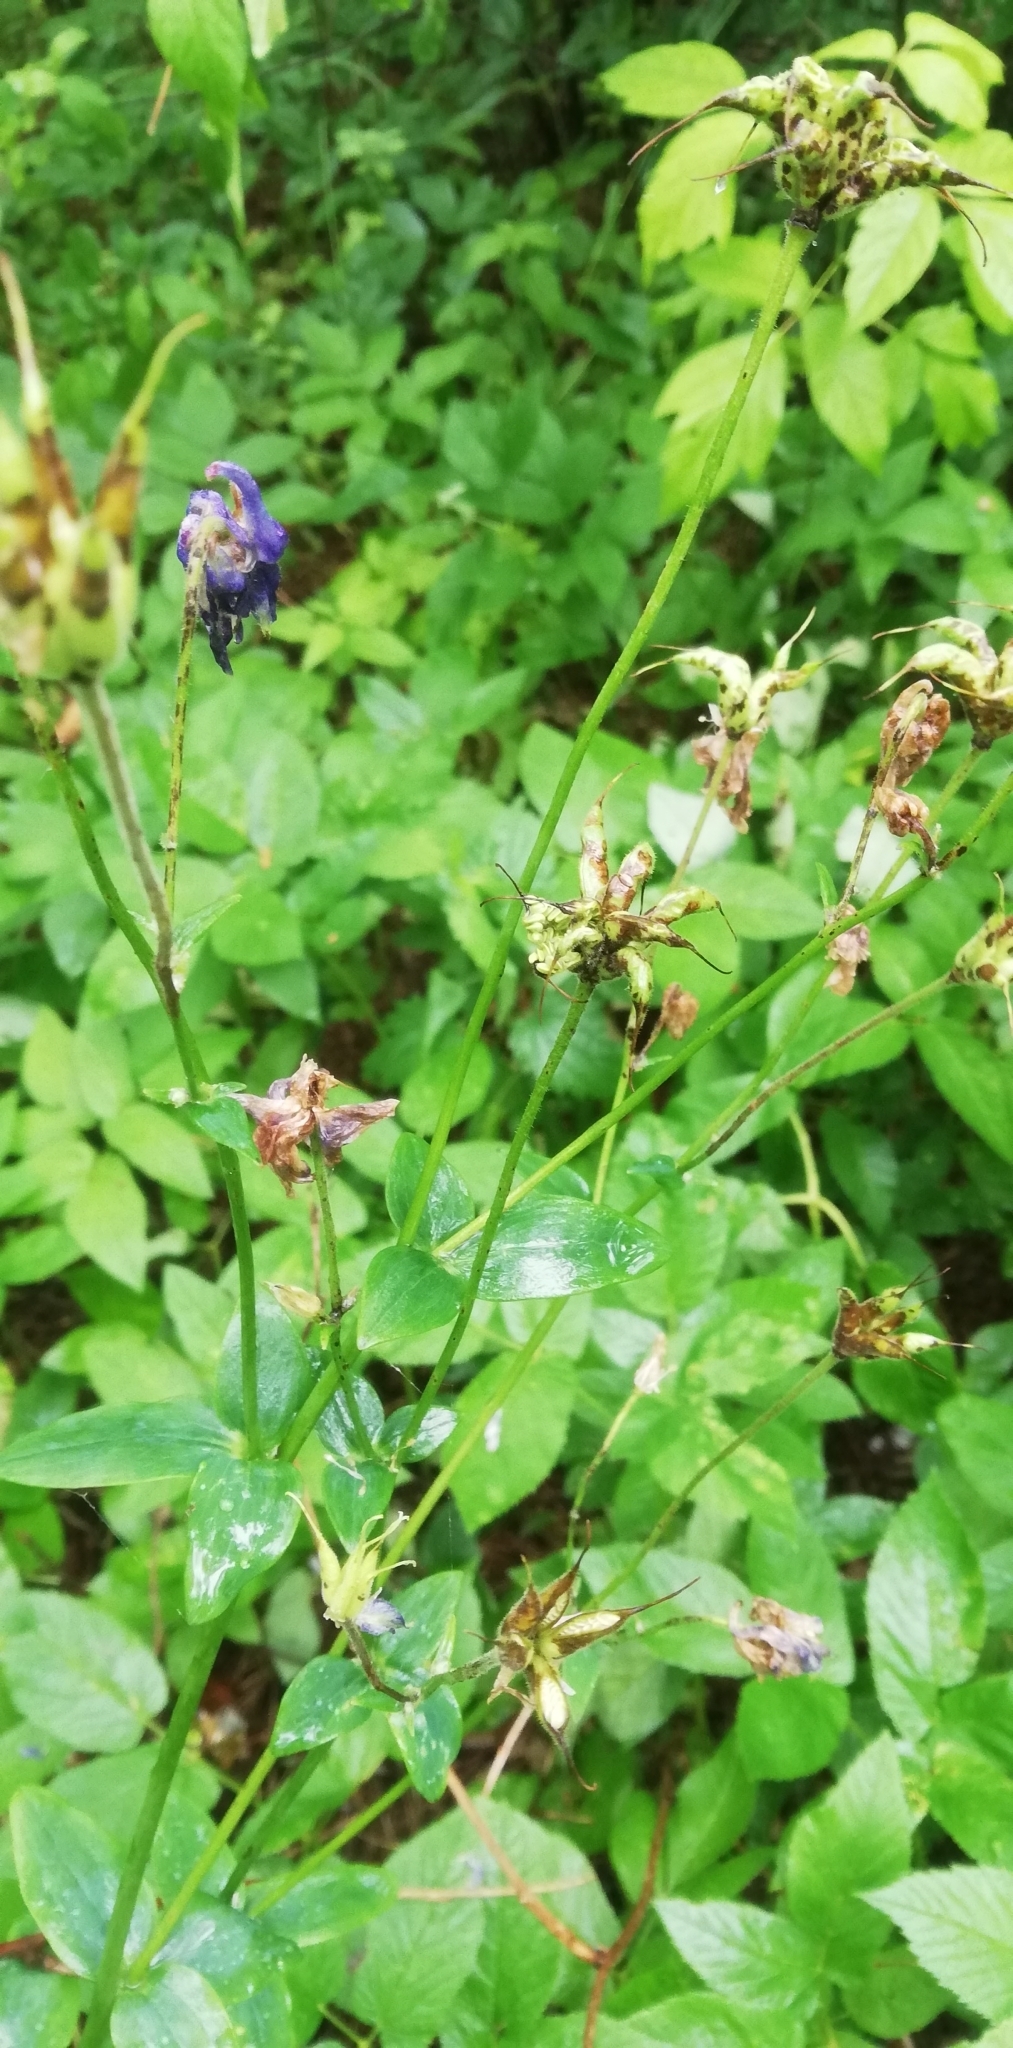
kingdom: Plantae
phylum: Tracheophyta
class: Magnoliopsida
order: Ranunculales
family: Ranunculaceae
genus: Aquilegia
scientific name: Aquilegia vulgaris
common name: Columbine
